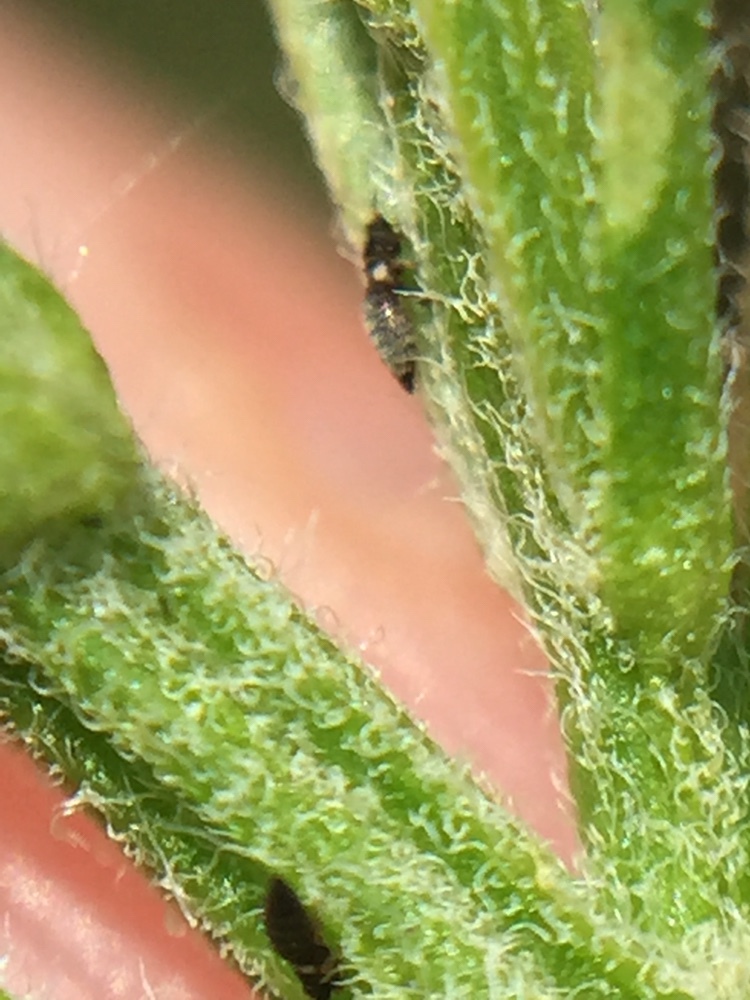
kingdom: Animalia
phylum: Arthropoda
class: Insecta
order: Thysanoptera
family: Thripidae
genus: Sericothrips
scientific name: Sericothrips staphylinus
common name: Gorse thrips
